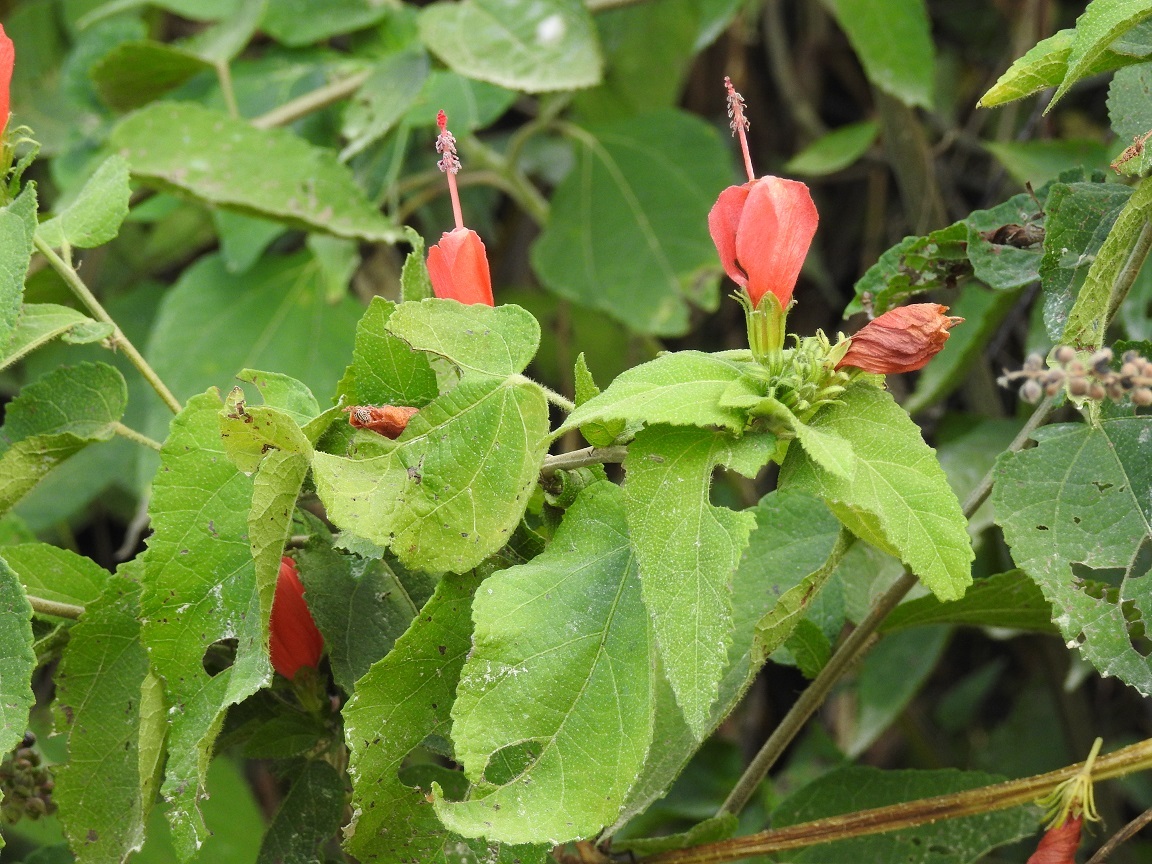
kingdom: Plantae
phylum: Tracheophyta
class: Magnoliopsida
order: Malvales
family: Malvaceae
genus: Malvaviscus
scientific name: Malvaviscus arboreus
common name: Wax mallow
